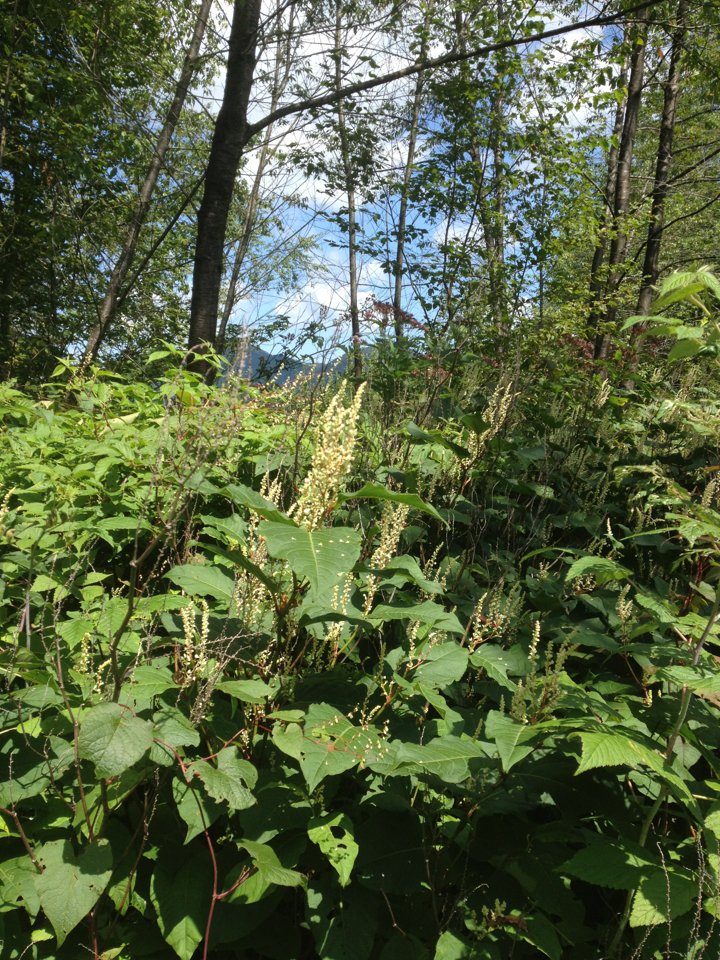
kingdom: Plantae
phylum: Tracheophyta
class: Magnoliopsida
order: Caryophyllales
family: Polygonaceae
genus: Reynoutria
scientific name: Reynoutria japonica
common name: Japanese knotweed
